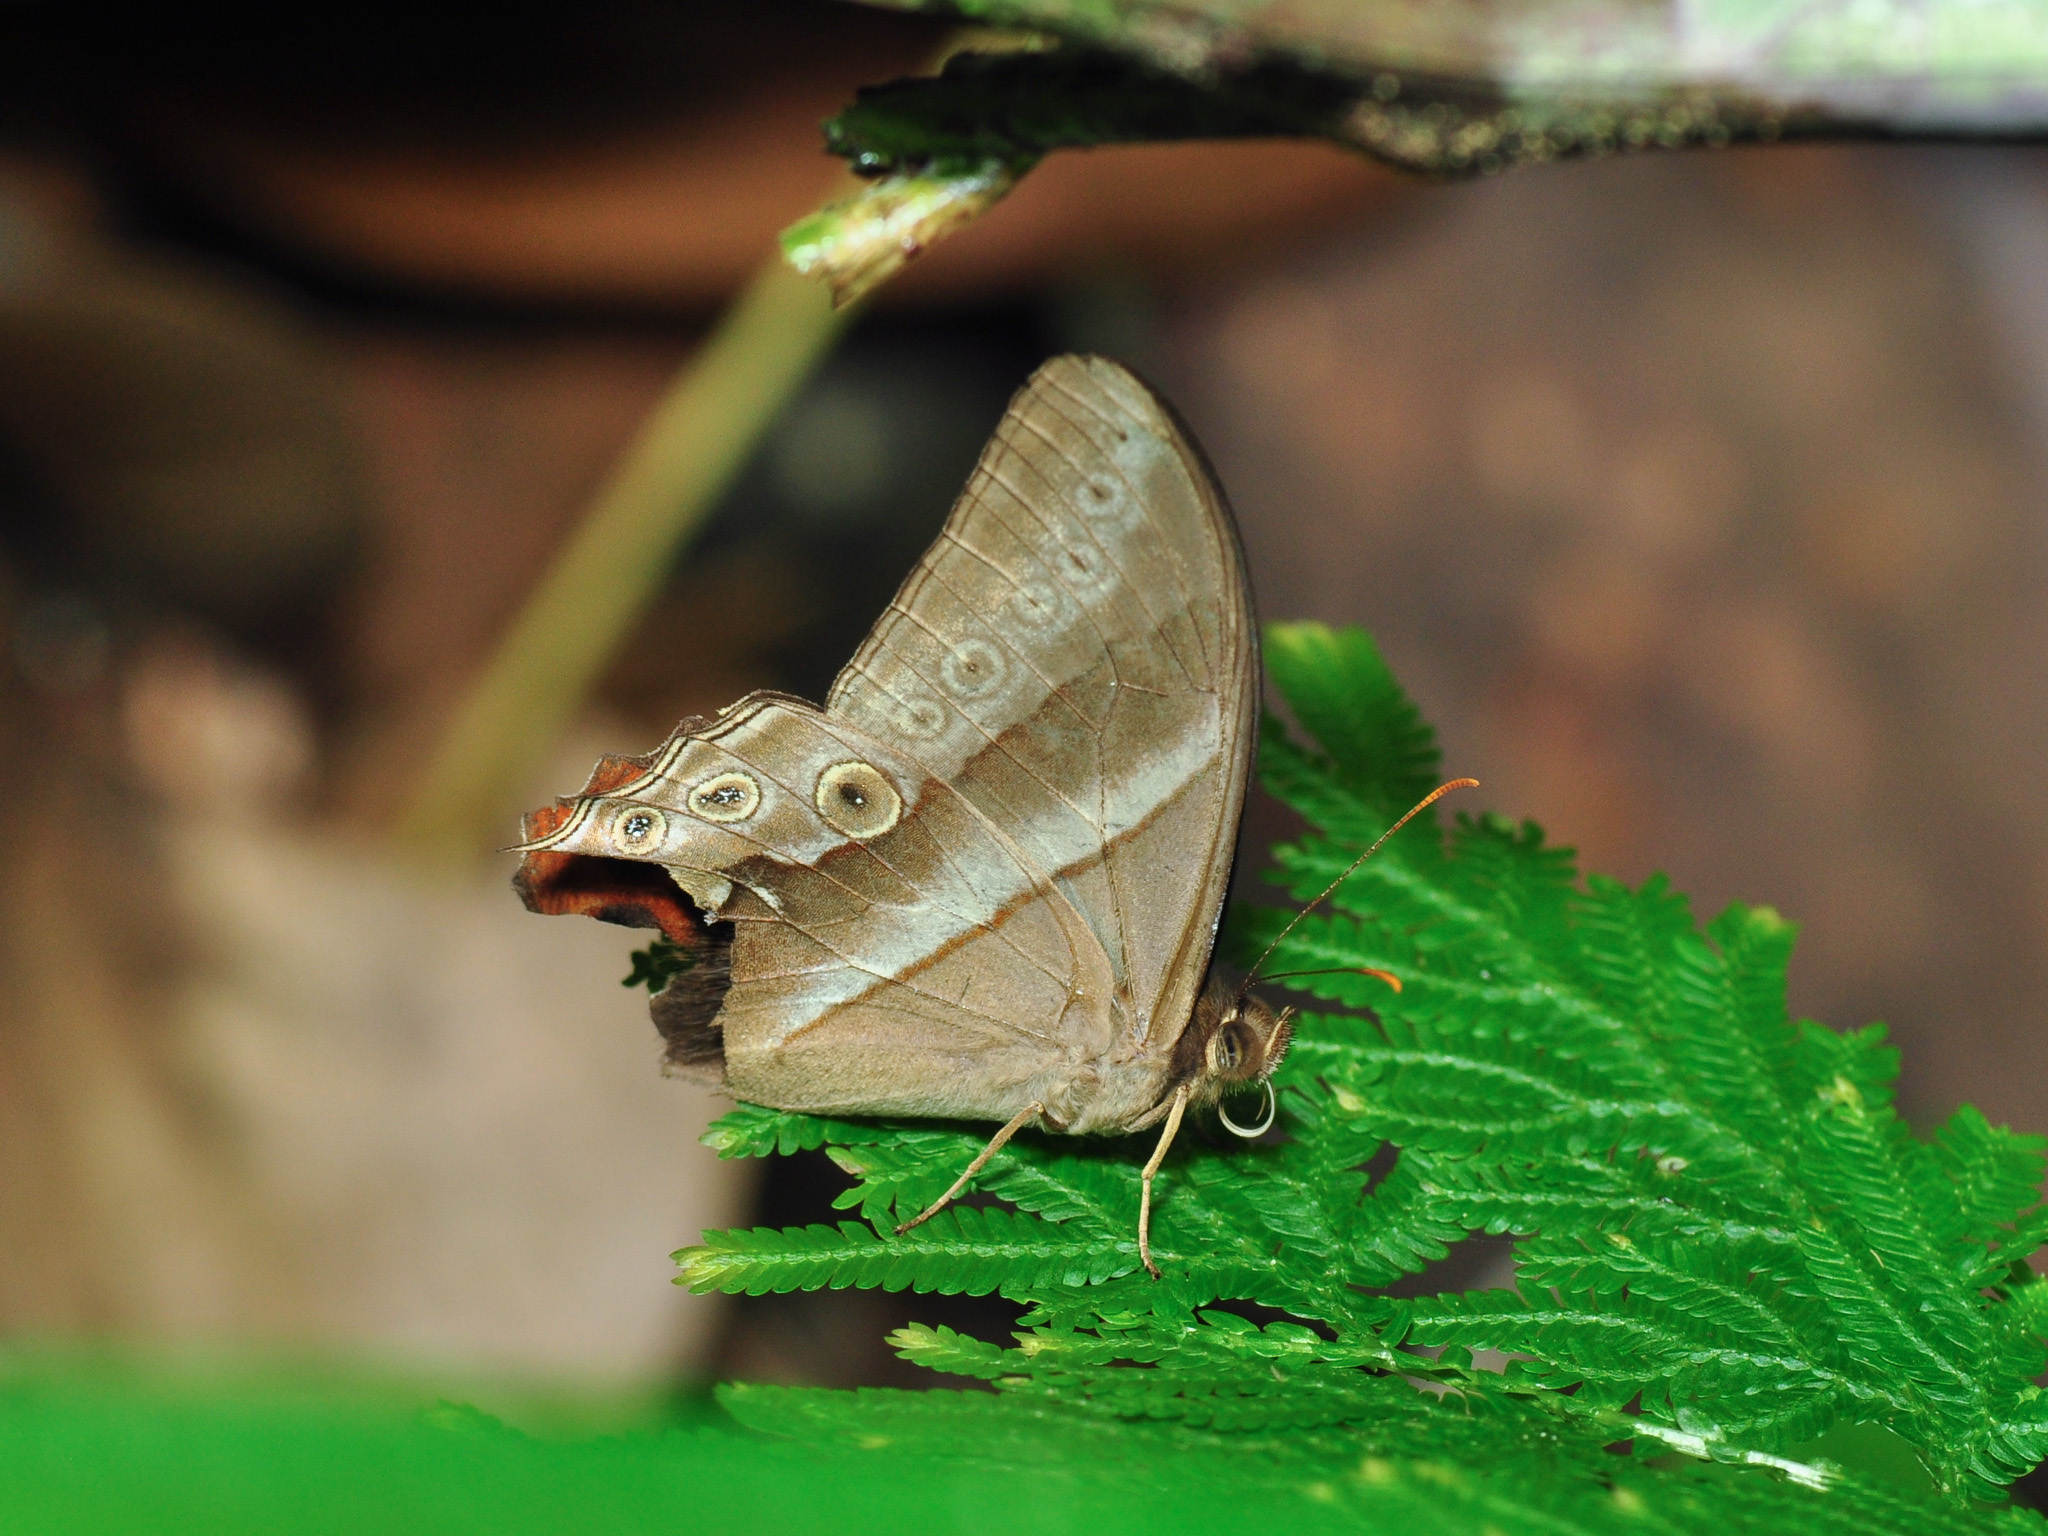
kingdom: Animalia
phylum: Arthropoda
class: Insecta
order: Lepidoptera
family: Nymphalidae
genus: Lethe
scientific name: Lethe mekara
